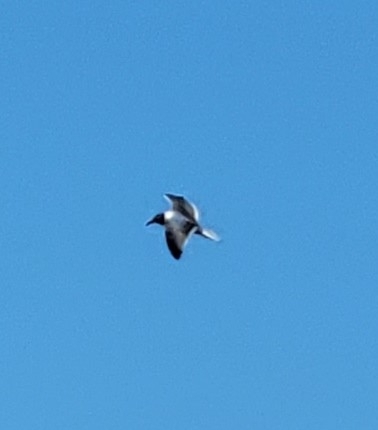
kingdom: Animalia
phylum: Chordata
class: Aves
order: Charadriiformes
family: Laridae
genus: Leucophaeus
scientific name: Leucophaeus atricilla
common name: Laughing gull
